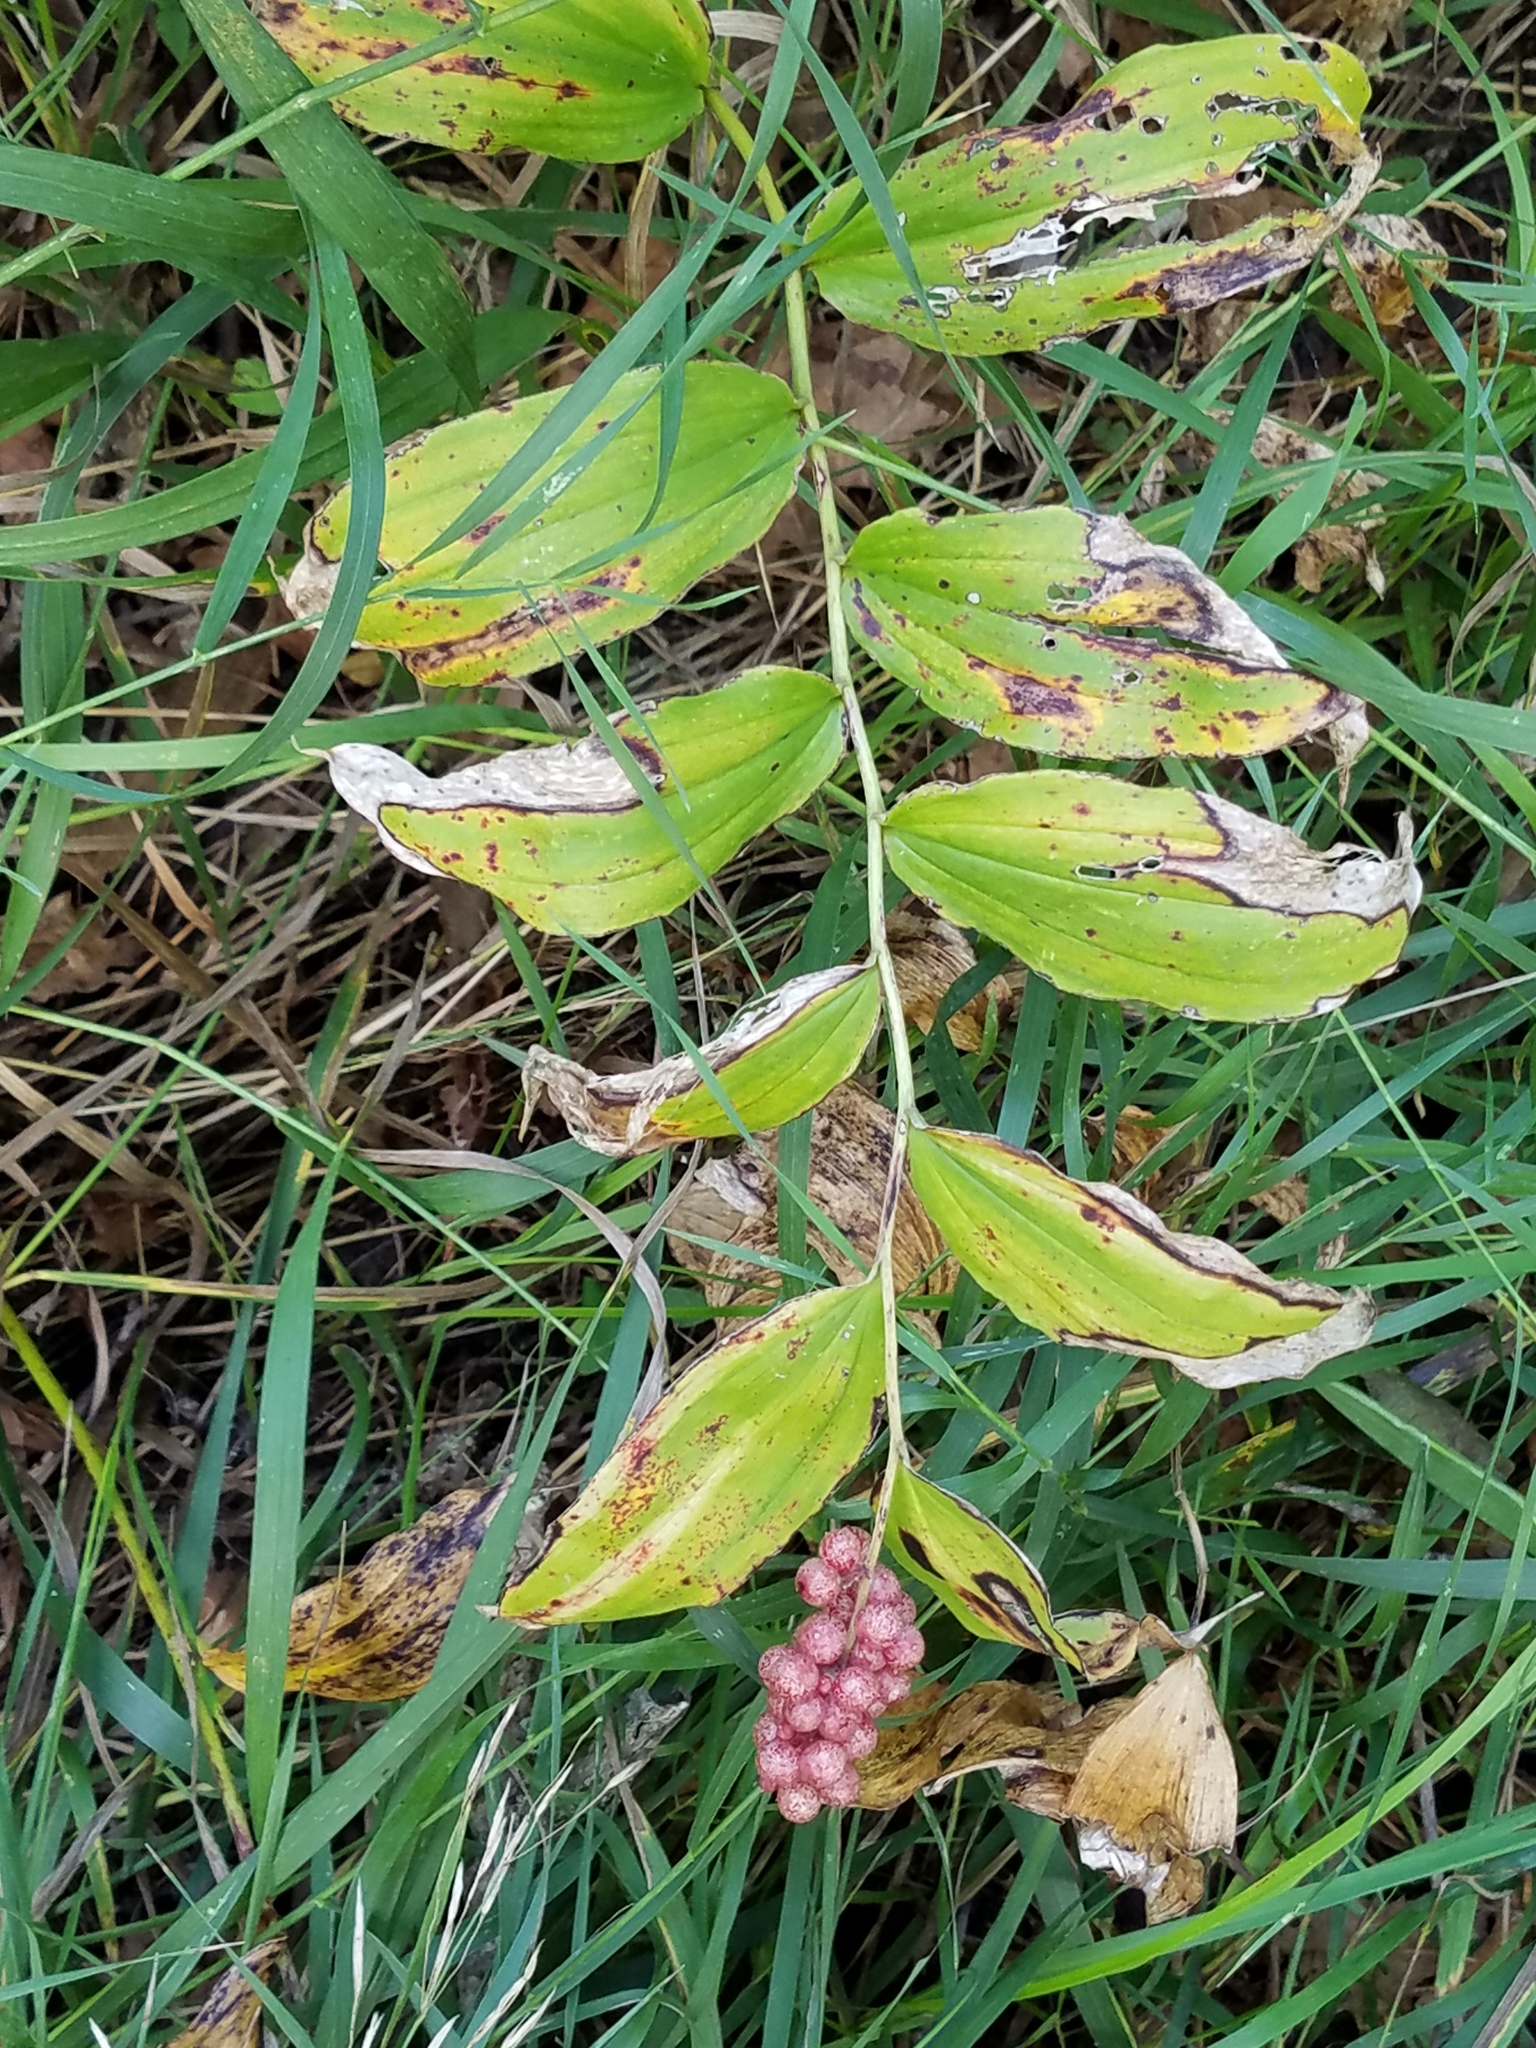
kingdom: Plantae
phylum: Tracheophyta
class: Liliopsida
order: Asparagales
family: Asparagaceae
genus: Maianthemum
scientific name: Maianthemum racemosum
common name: False spikenard
